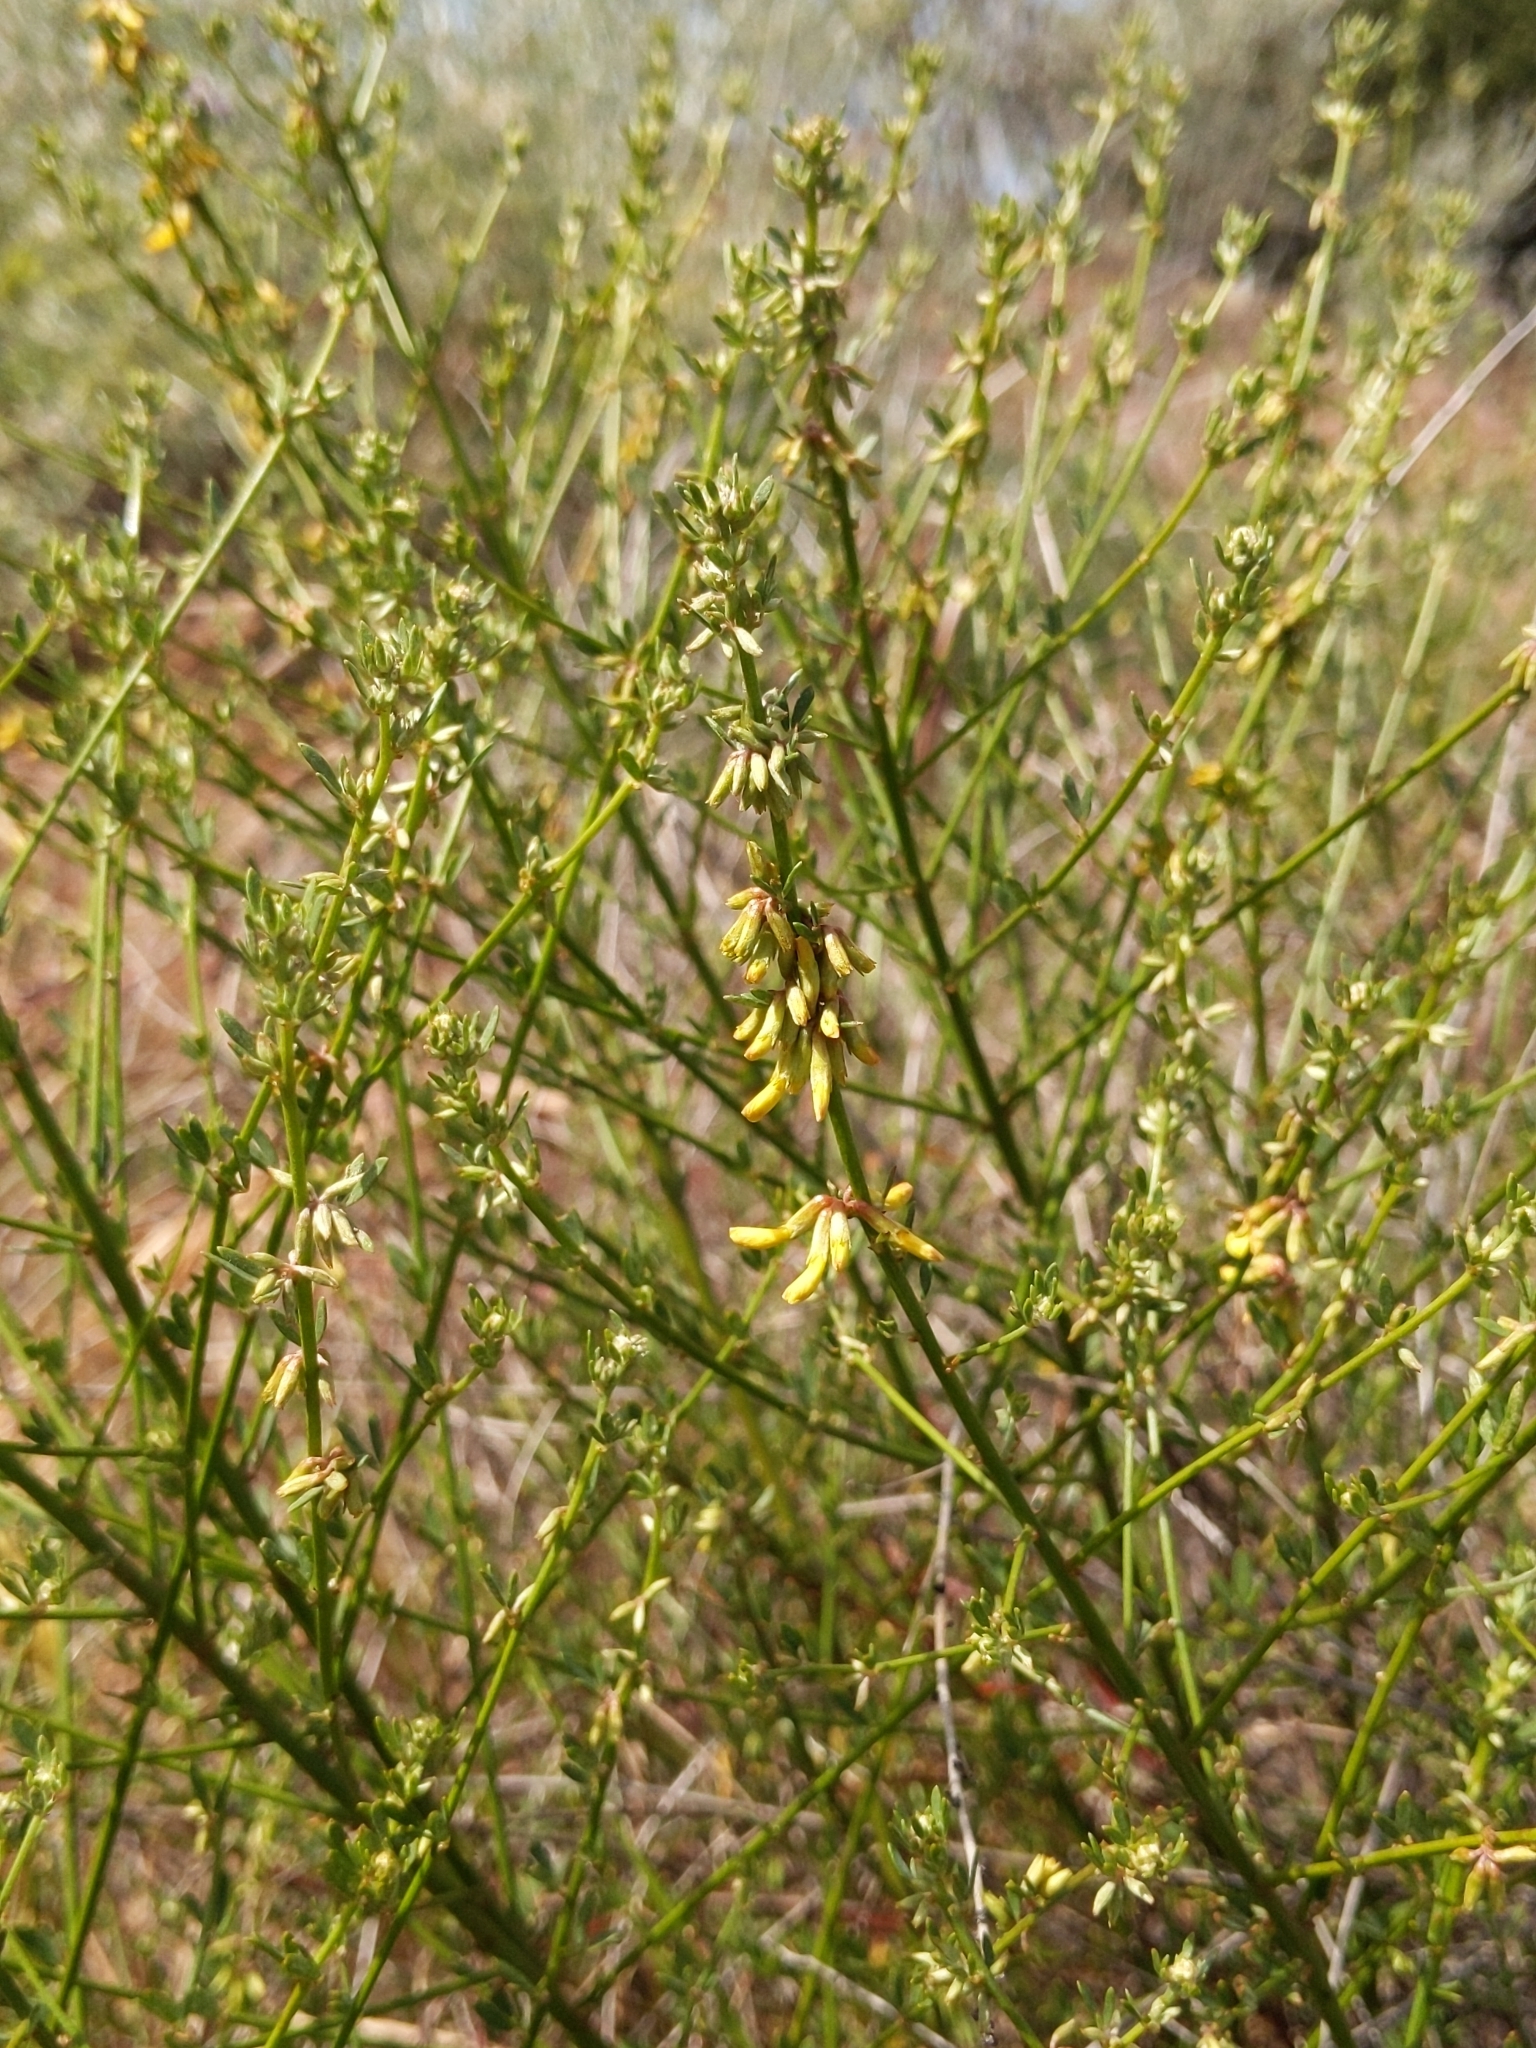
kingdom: Plantae
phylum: Tracheophyta
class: Magnoliopsida
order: Fabales
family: Fabaceae
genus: Acmispon
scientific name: Acmispon glaber
